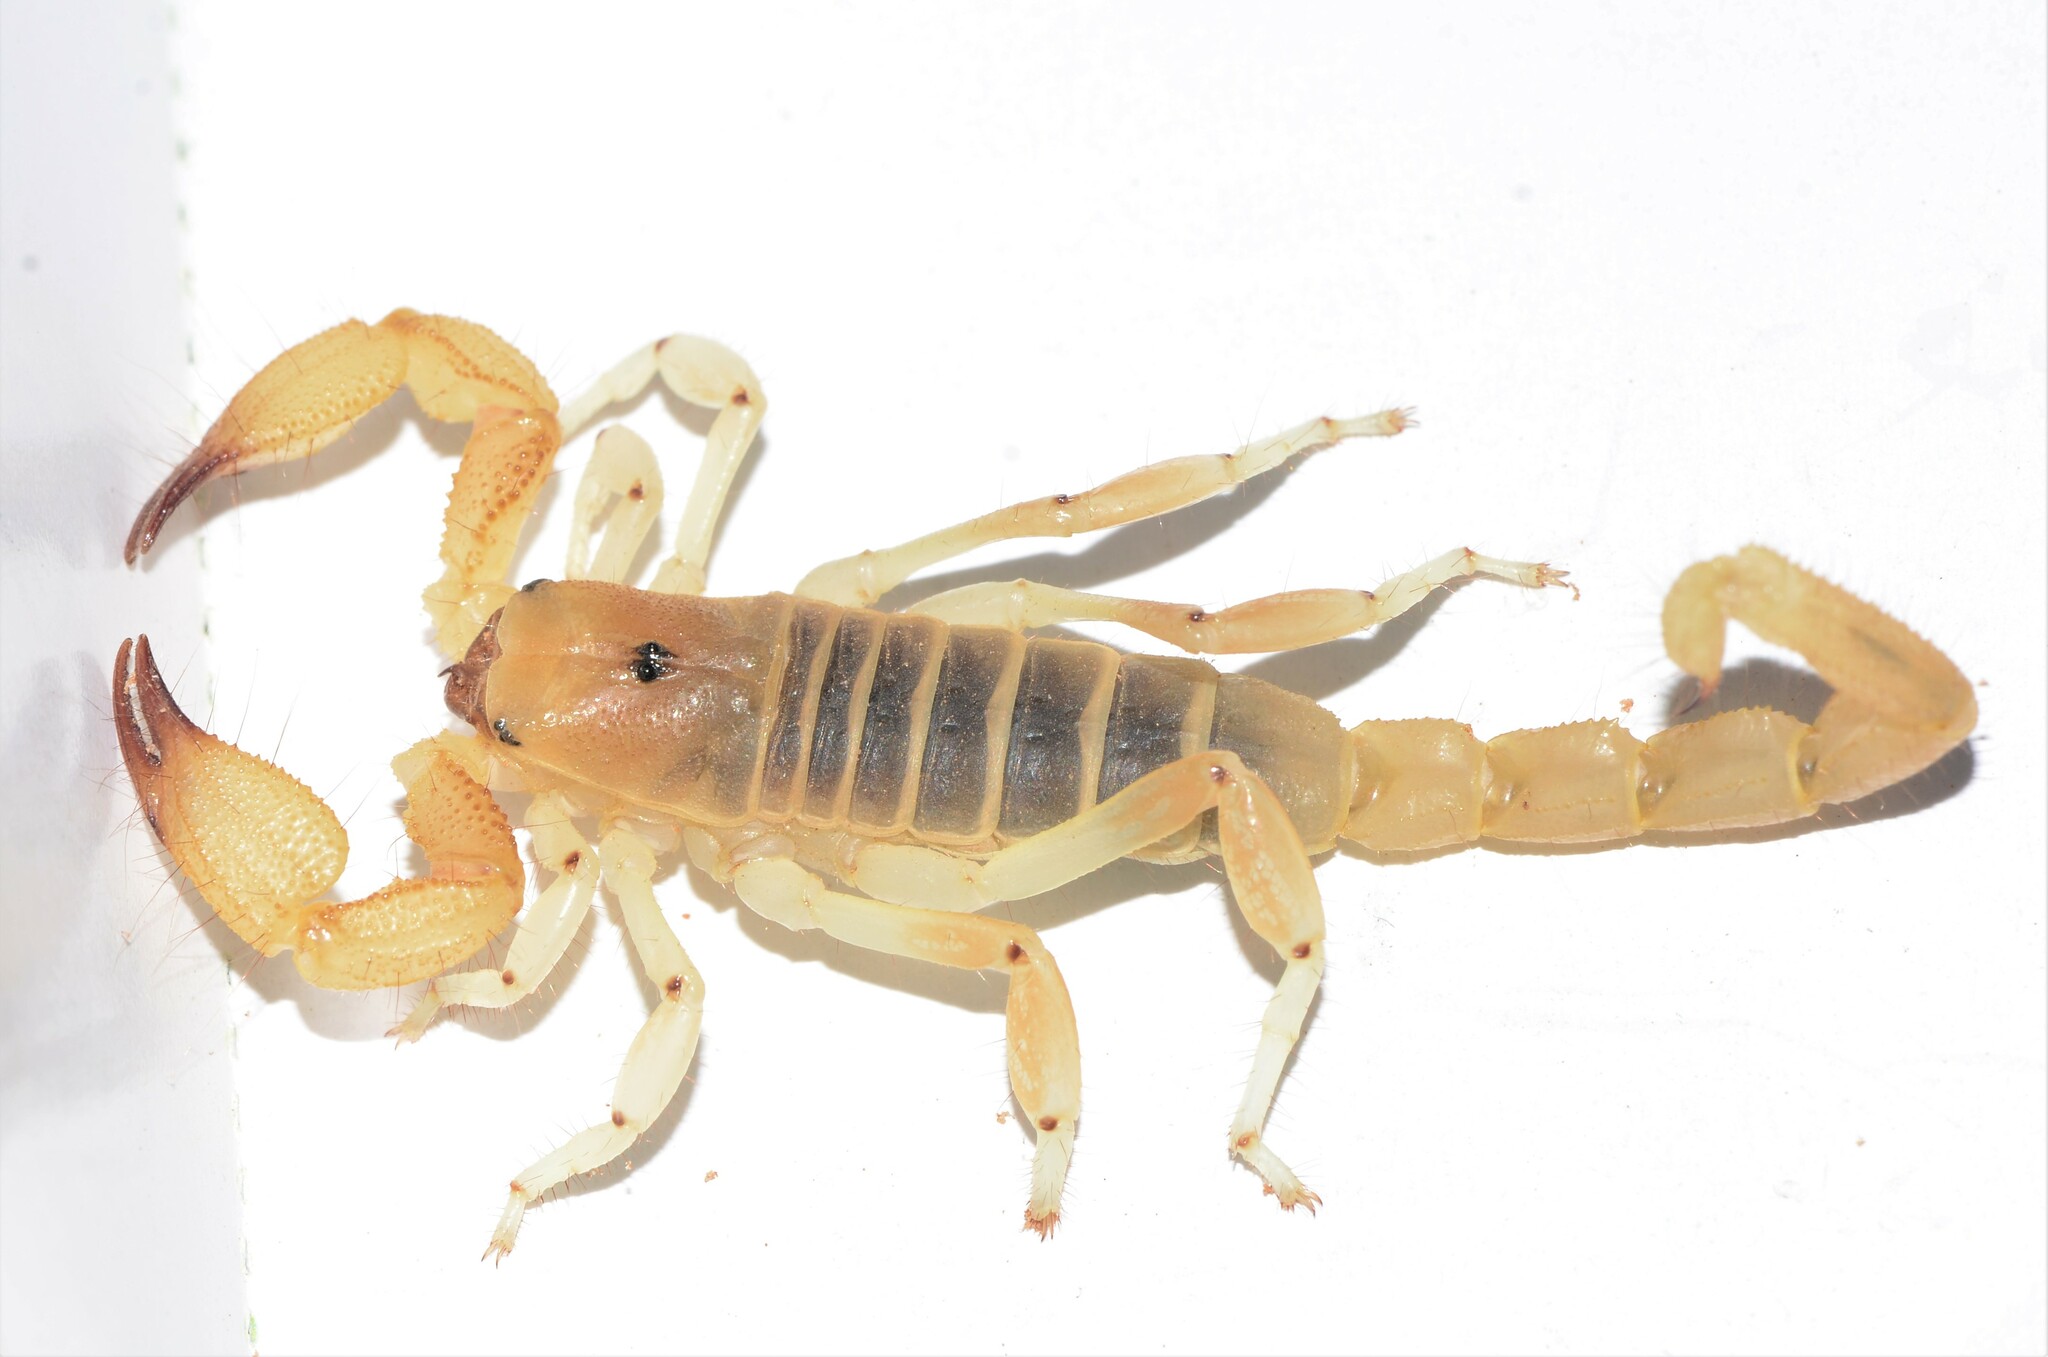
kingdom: Animalia
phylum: Arthropoda
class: Arachnida
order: Scorpiones
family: Scorpionidae
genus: Opistophthalmus
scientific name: Opistophthalmus lornae
